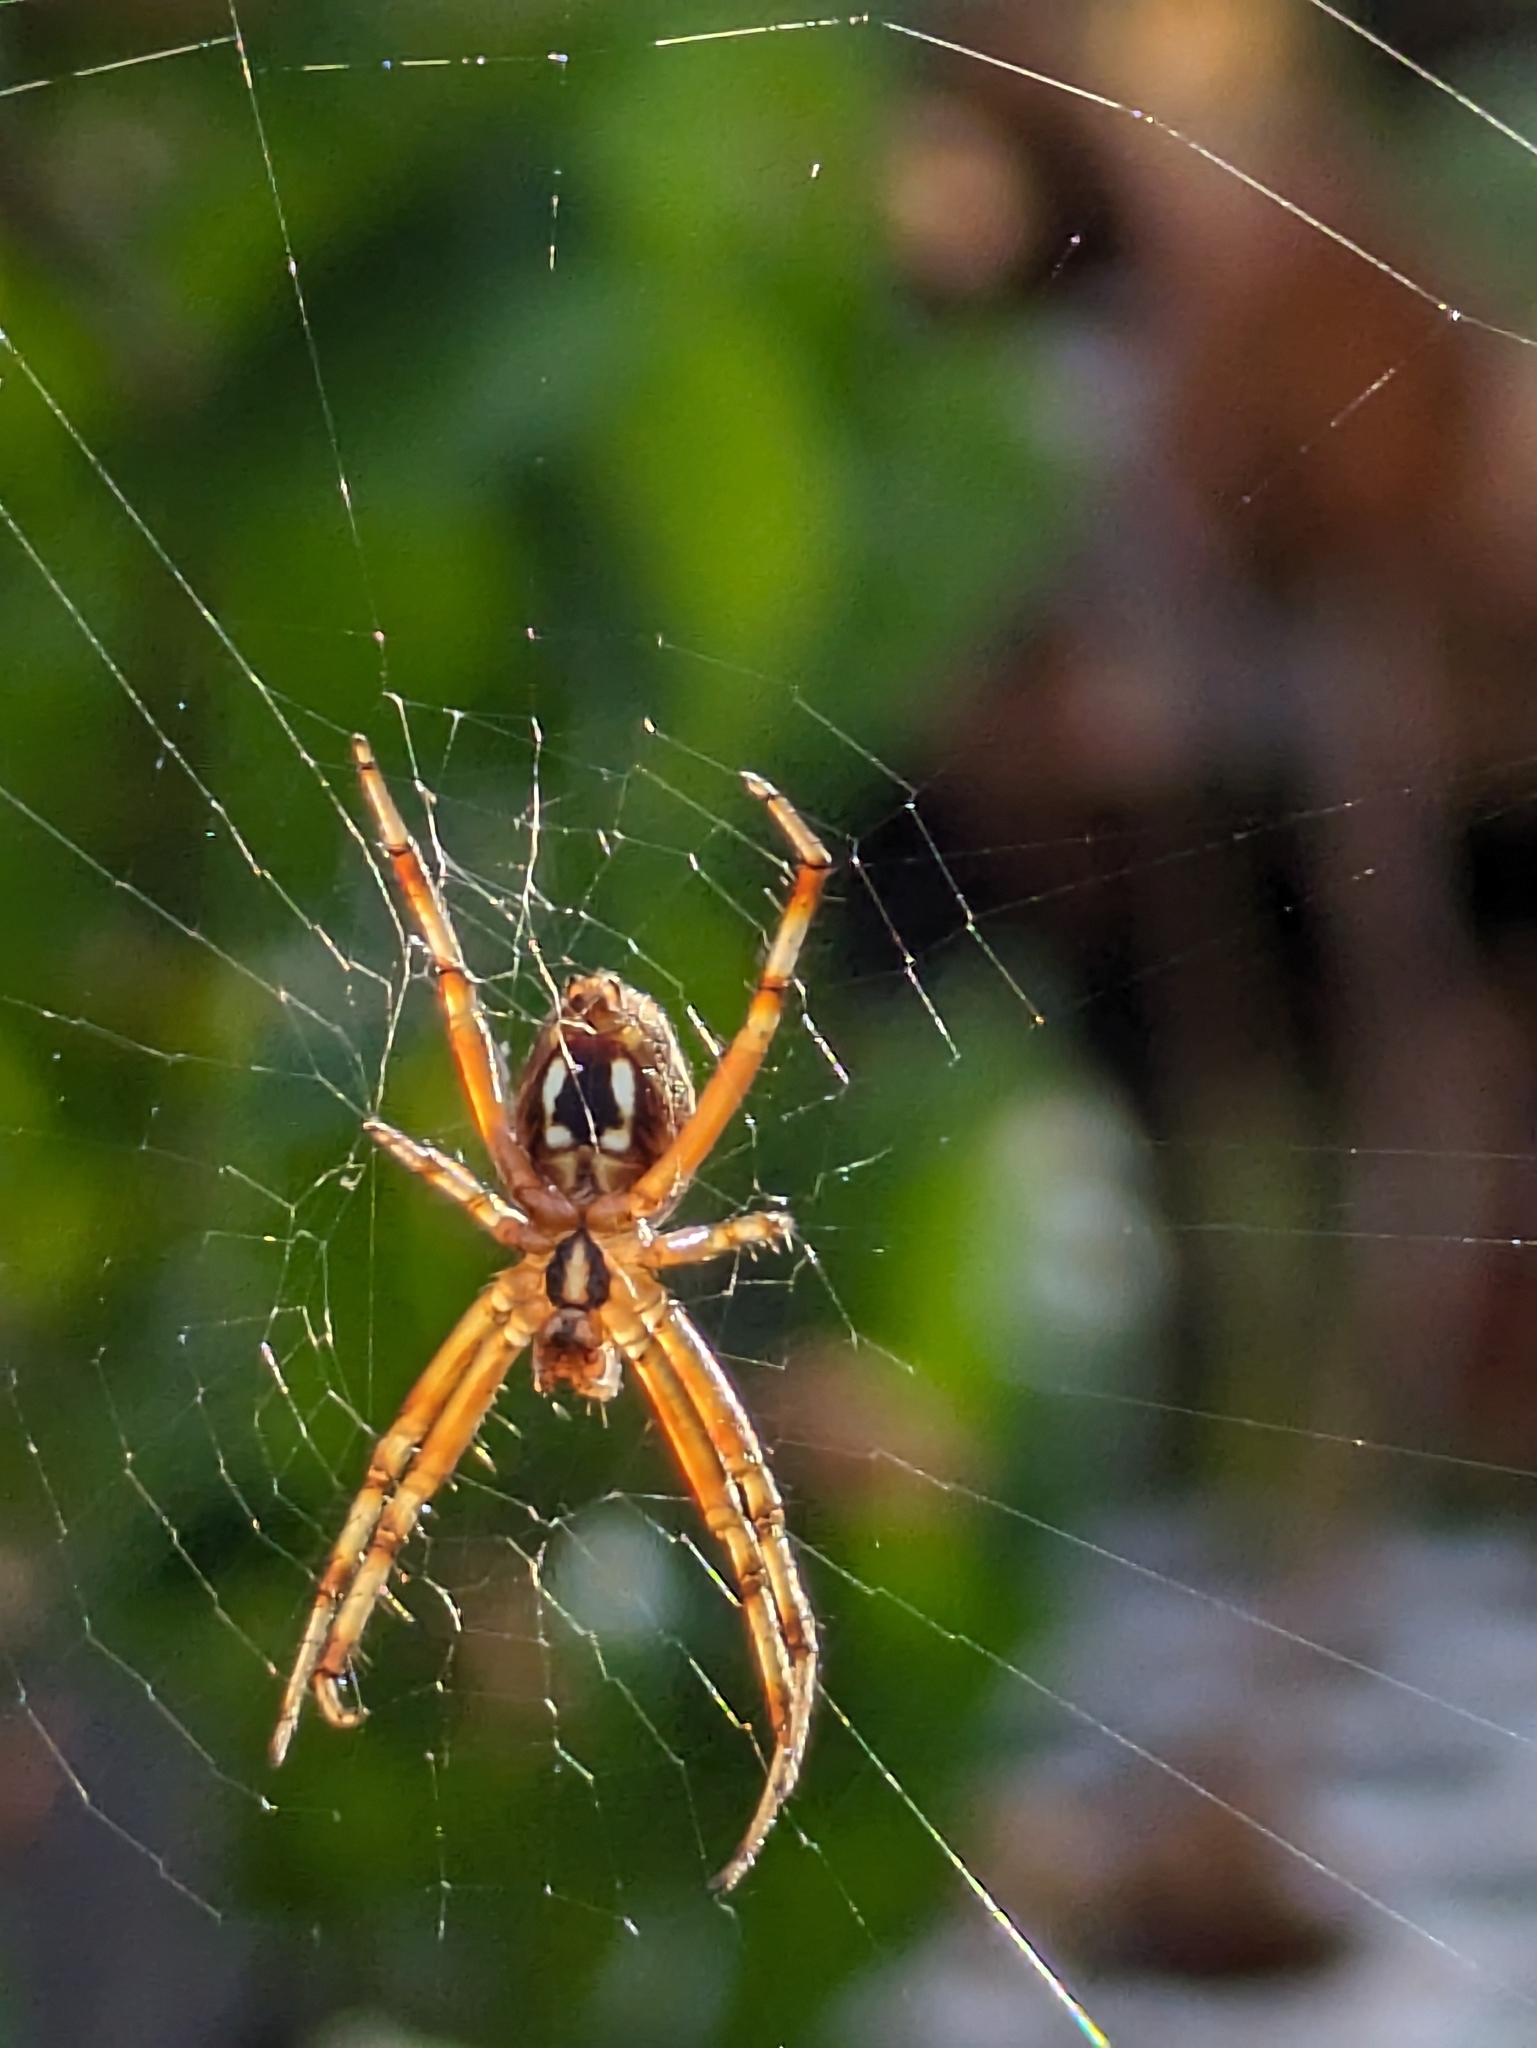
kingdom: Animalia
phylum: Arthropoda
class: Arachnida
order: Araneae
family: Araneidae
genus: Neoscona
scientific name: Neoscona oaxacensis
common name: Orb weavers
